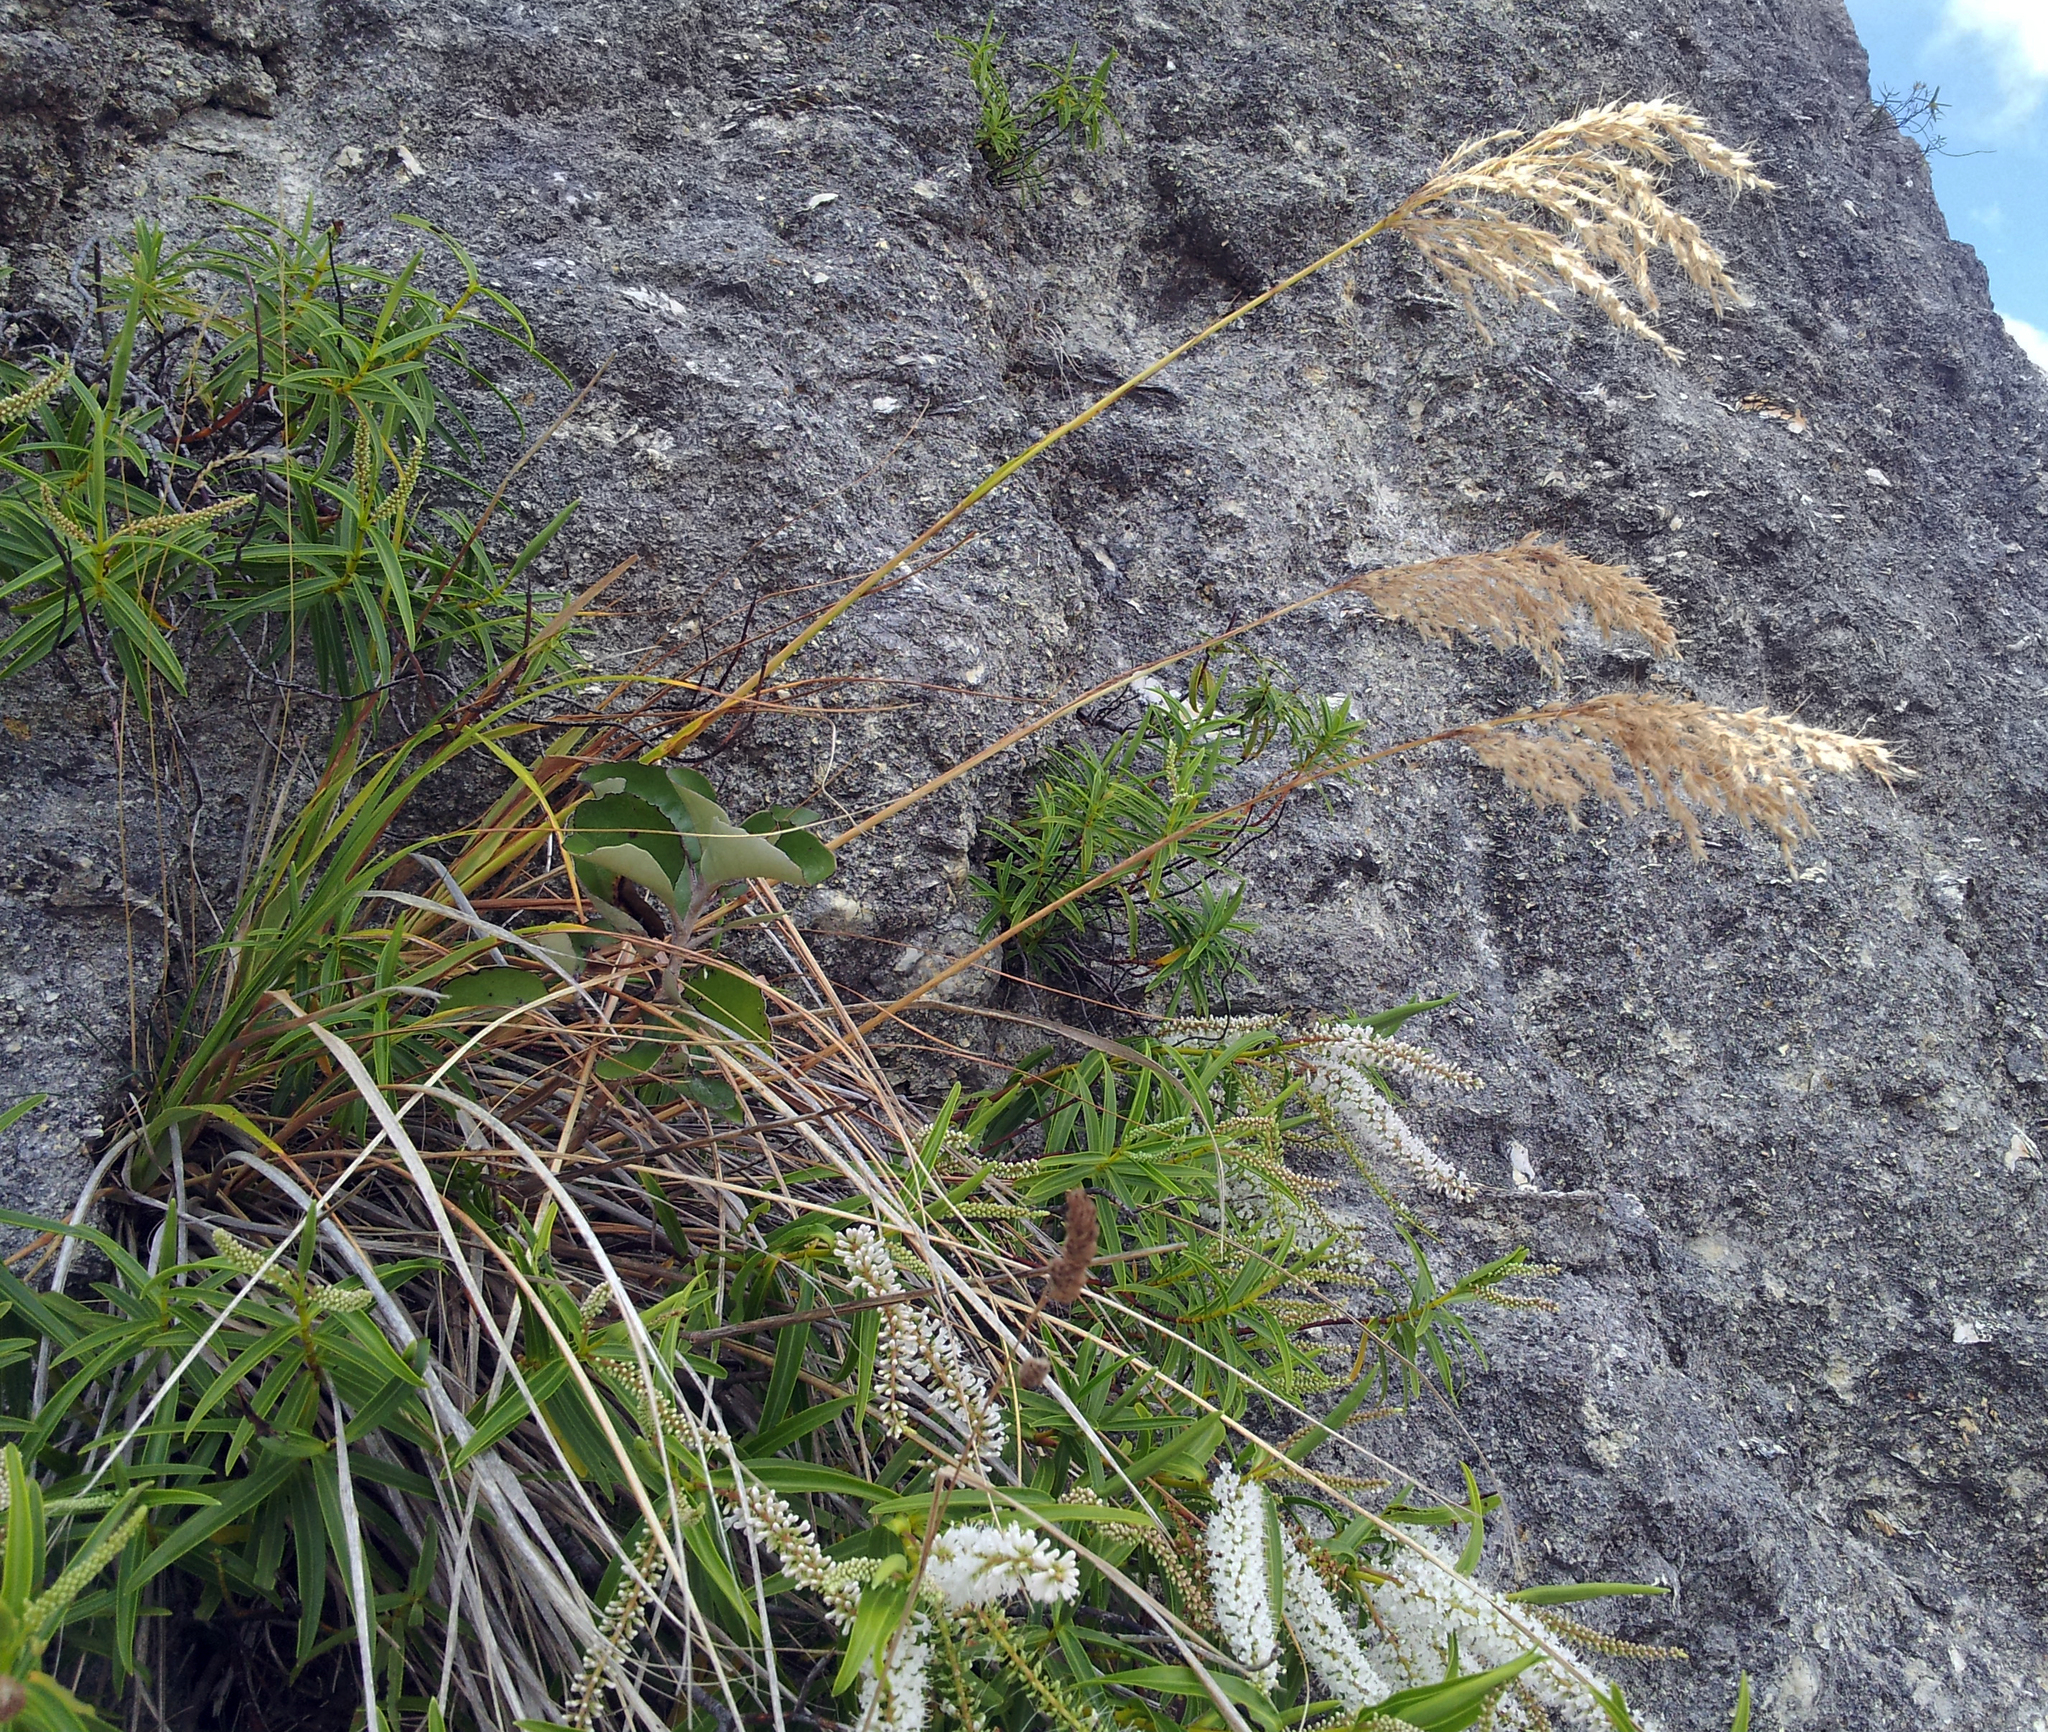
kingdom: Plantae
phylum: Tracheophyta
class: Liliopsida
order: Poales
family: Poaceae
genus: Chionochloa
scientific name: Chionochloa flavicans
